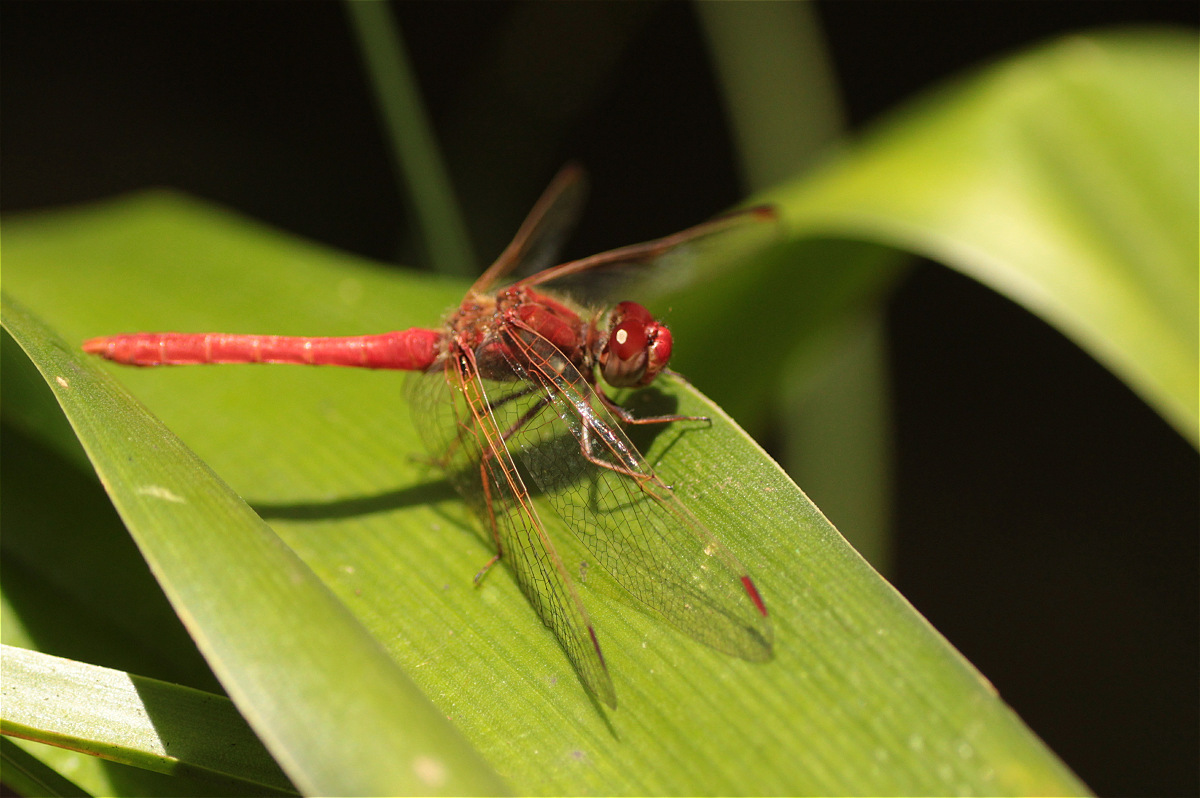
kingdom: Animalia
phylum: Arthropoda
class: Insecta
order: Odonata
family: Libellulidae
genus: Sympetrum
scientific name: Sympetrum gilvum
